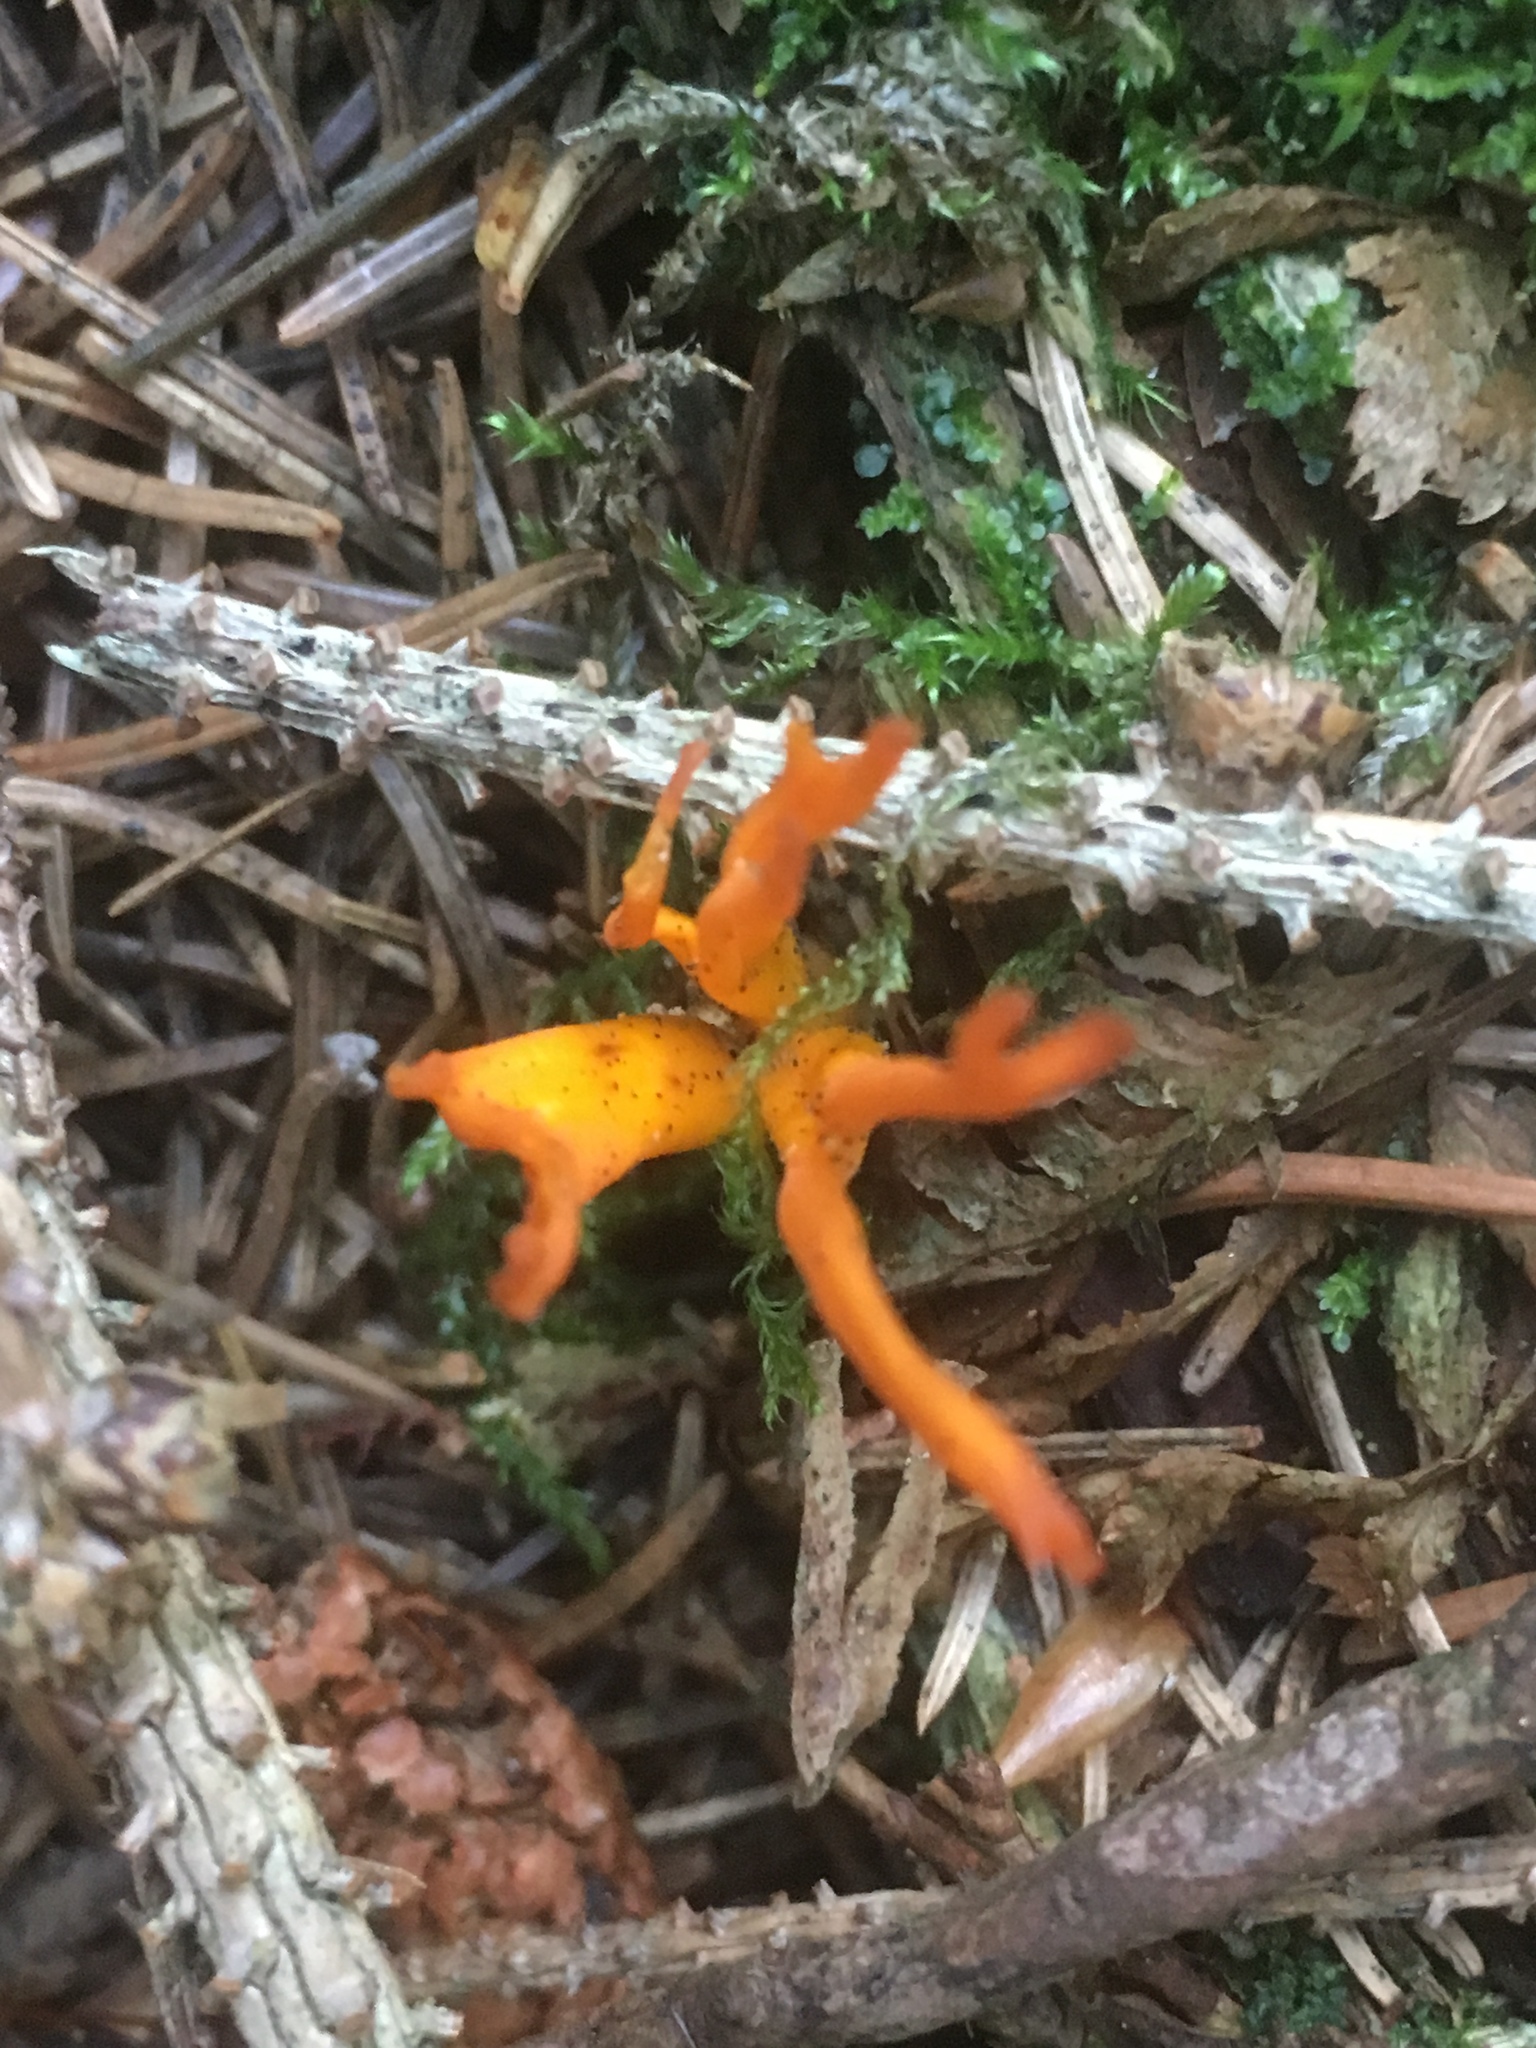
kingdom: Fungi
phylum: Basidiomycota
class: Dacrymycetes
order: Dacrymycetales
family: Dacrymycetaceae
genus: Calocera
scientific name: Calocera viscosa
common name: Yellow stagshorn
